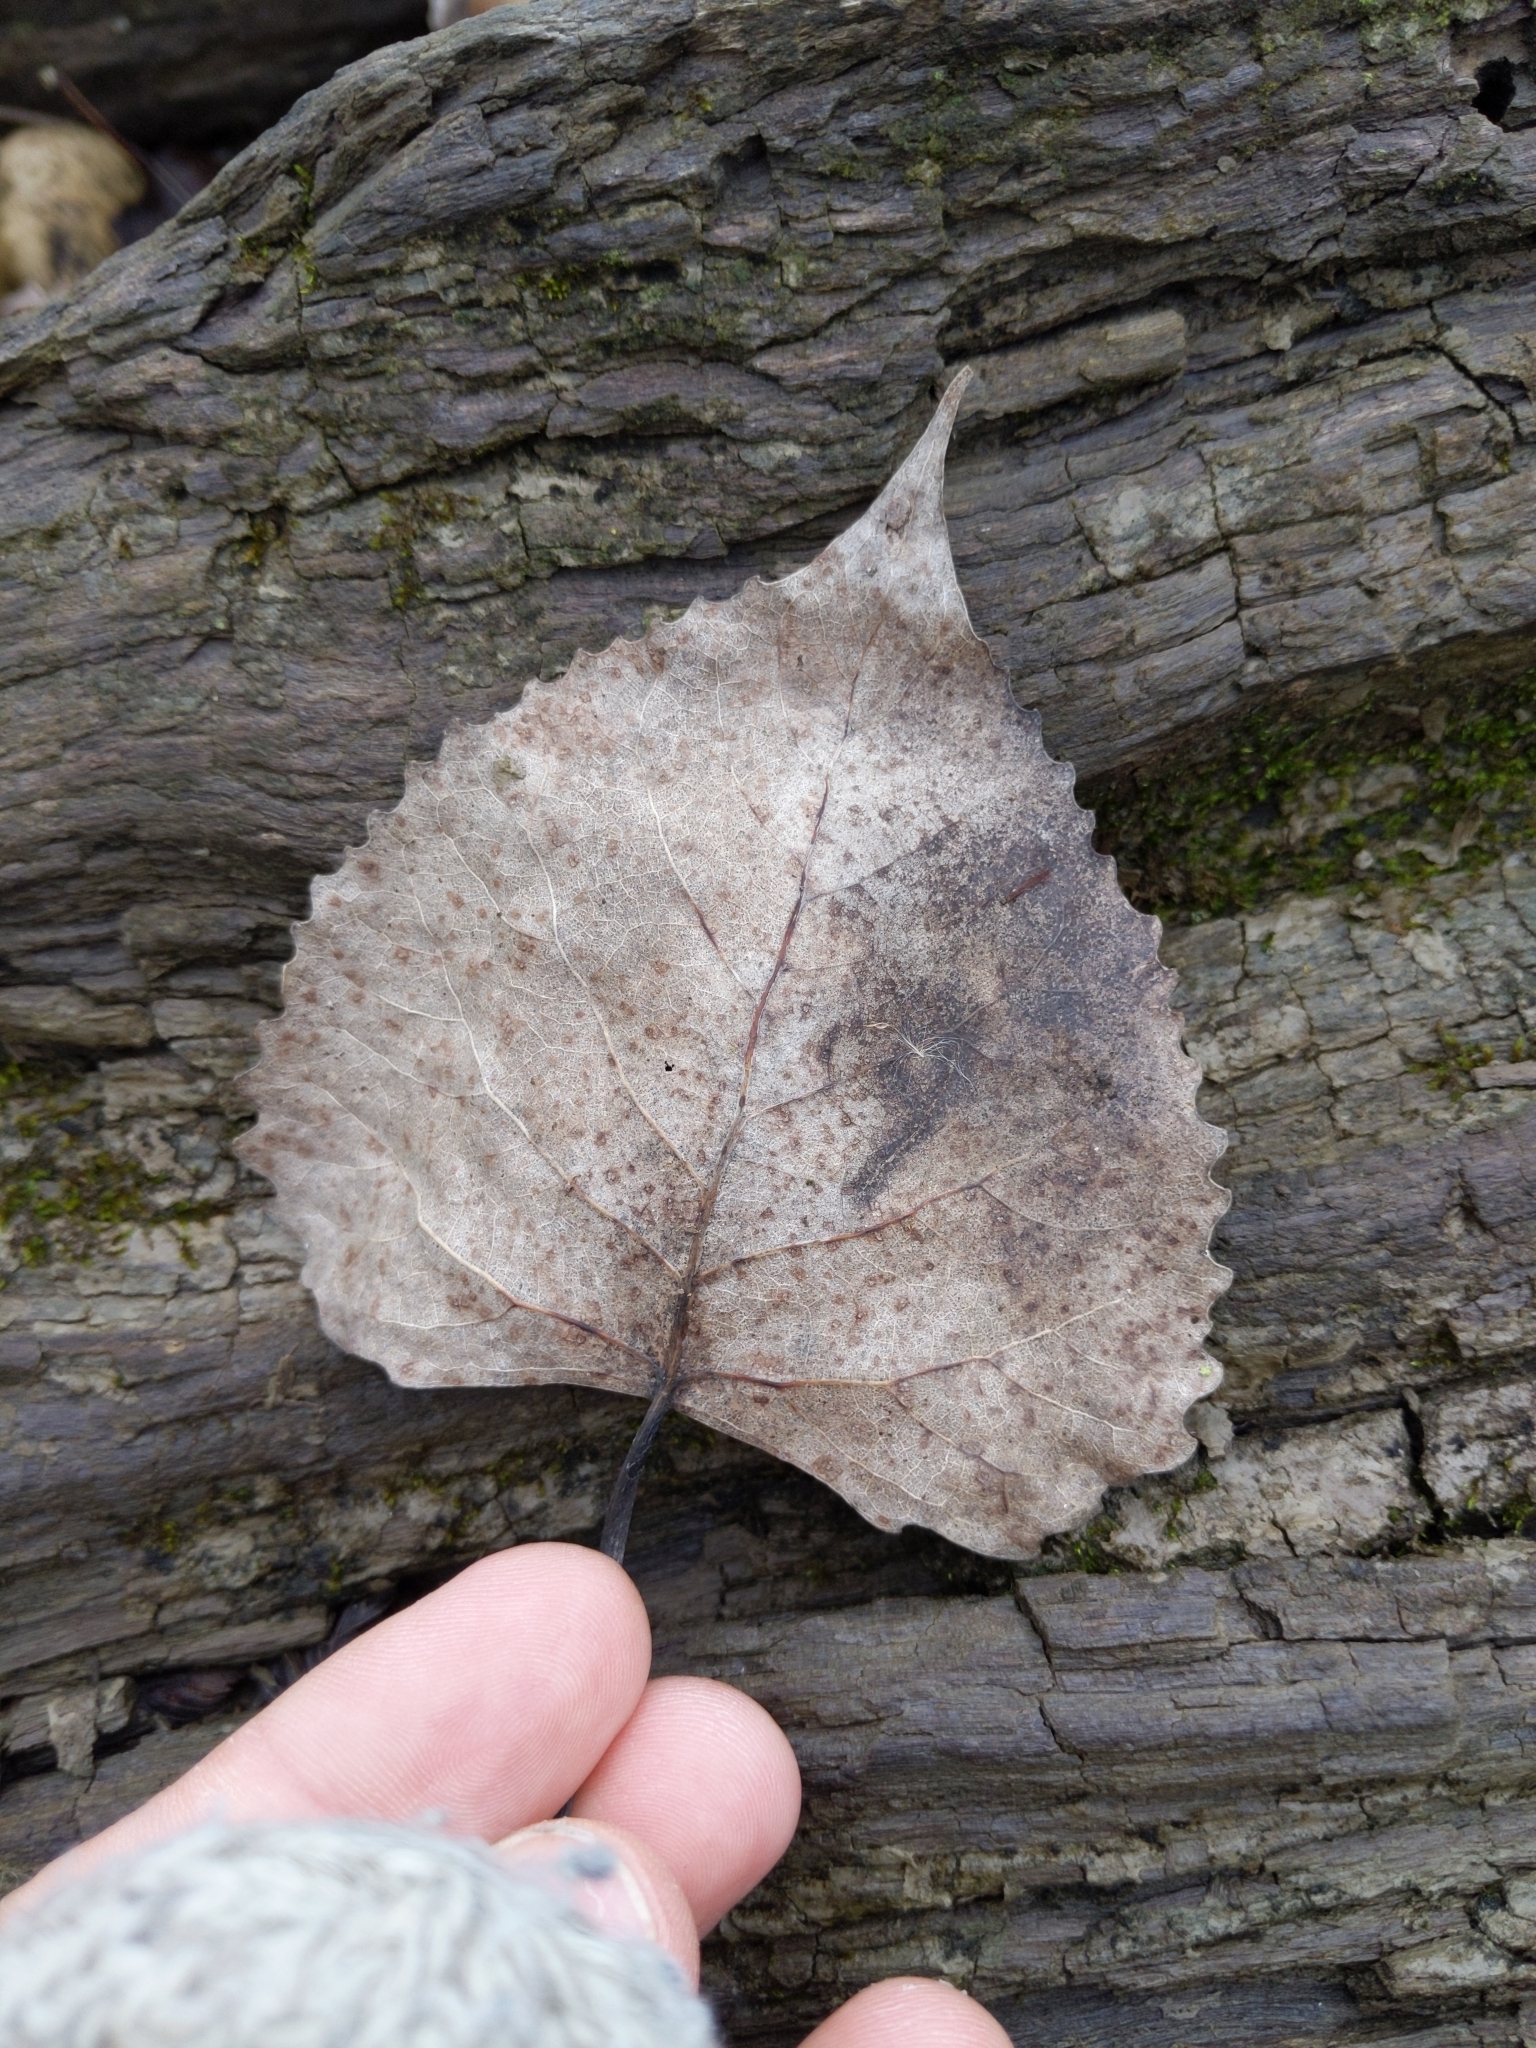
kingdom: Plantae
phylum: Tracheophyta
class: Magnoliopsida
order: Malpighiales
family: Salicaceae
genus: Populus
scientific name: Populus deltoides
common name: Eastern cottonwood
